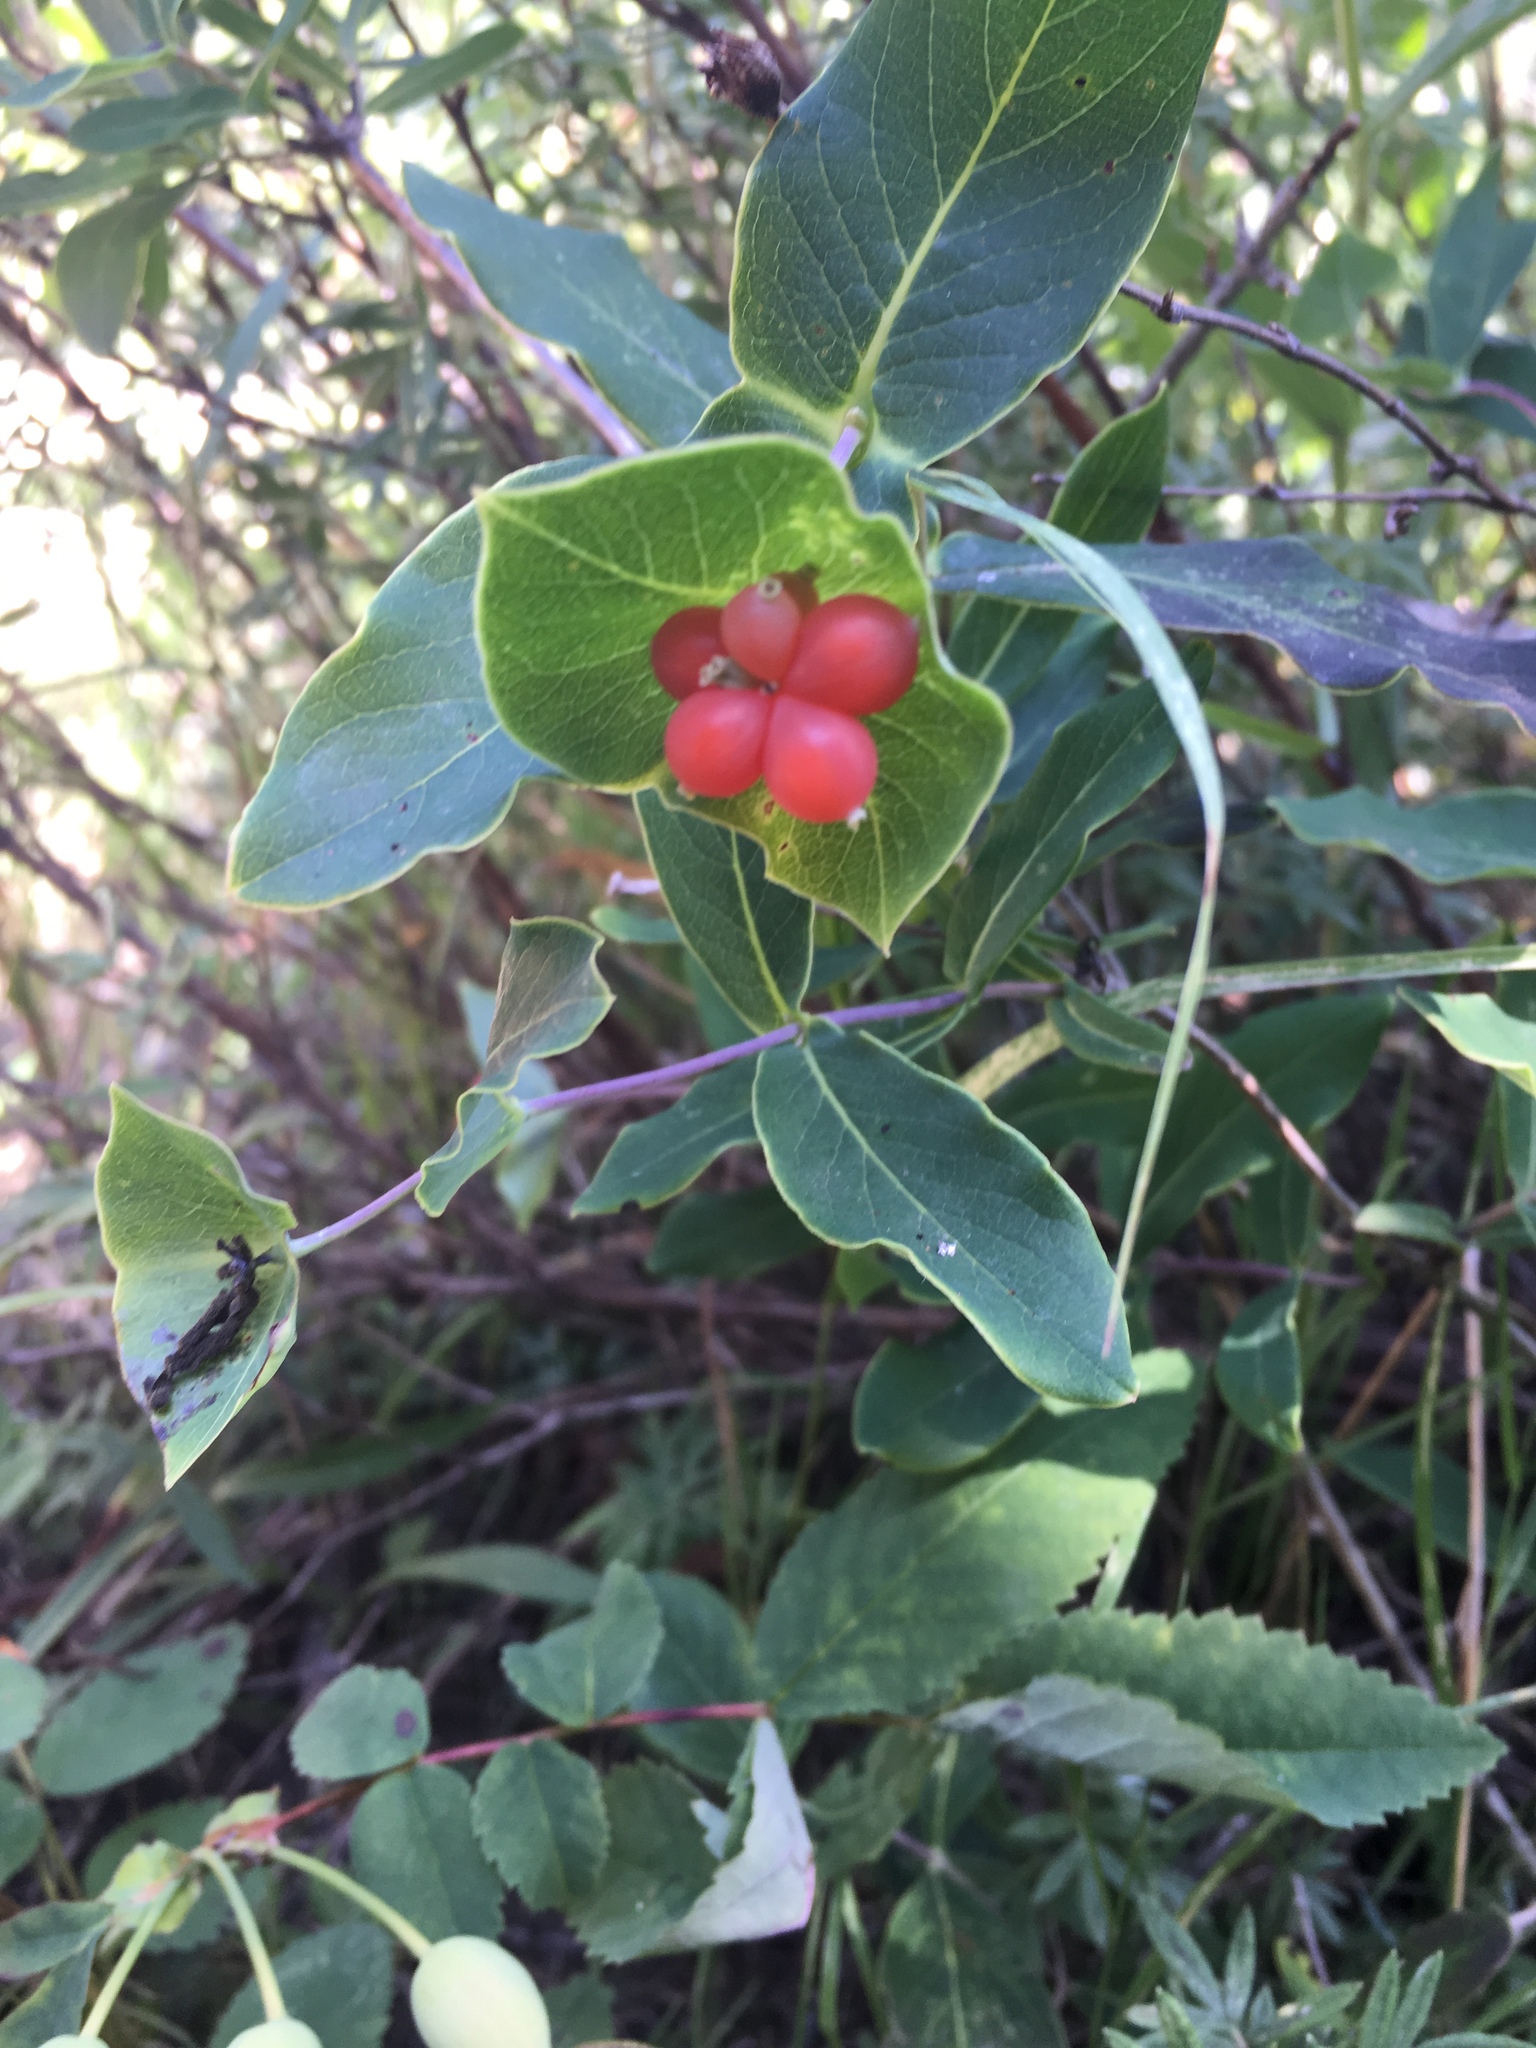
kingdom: Plantae
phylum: Tracheophyta
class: Magnoliopsida
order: Dipsacales
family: Caprifoliaceae
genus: Lonicera
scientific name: Lonicera dioica
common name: Limber honeysuckle
